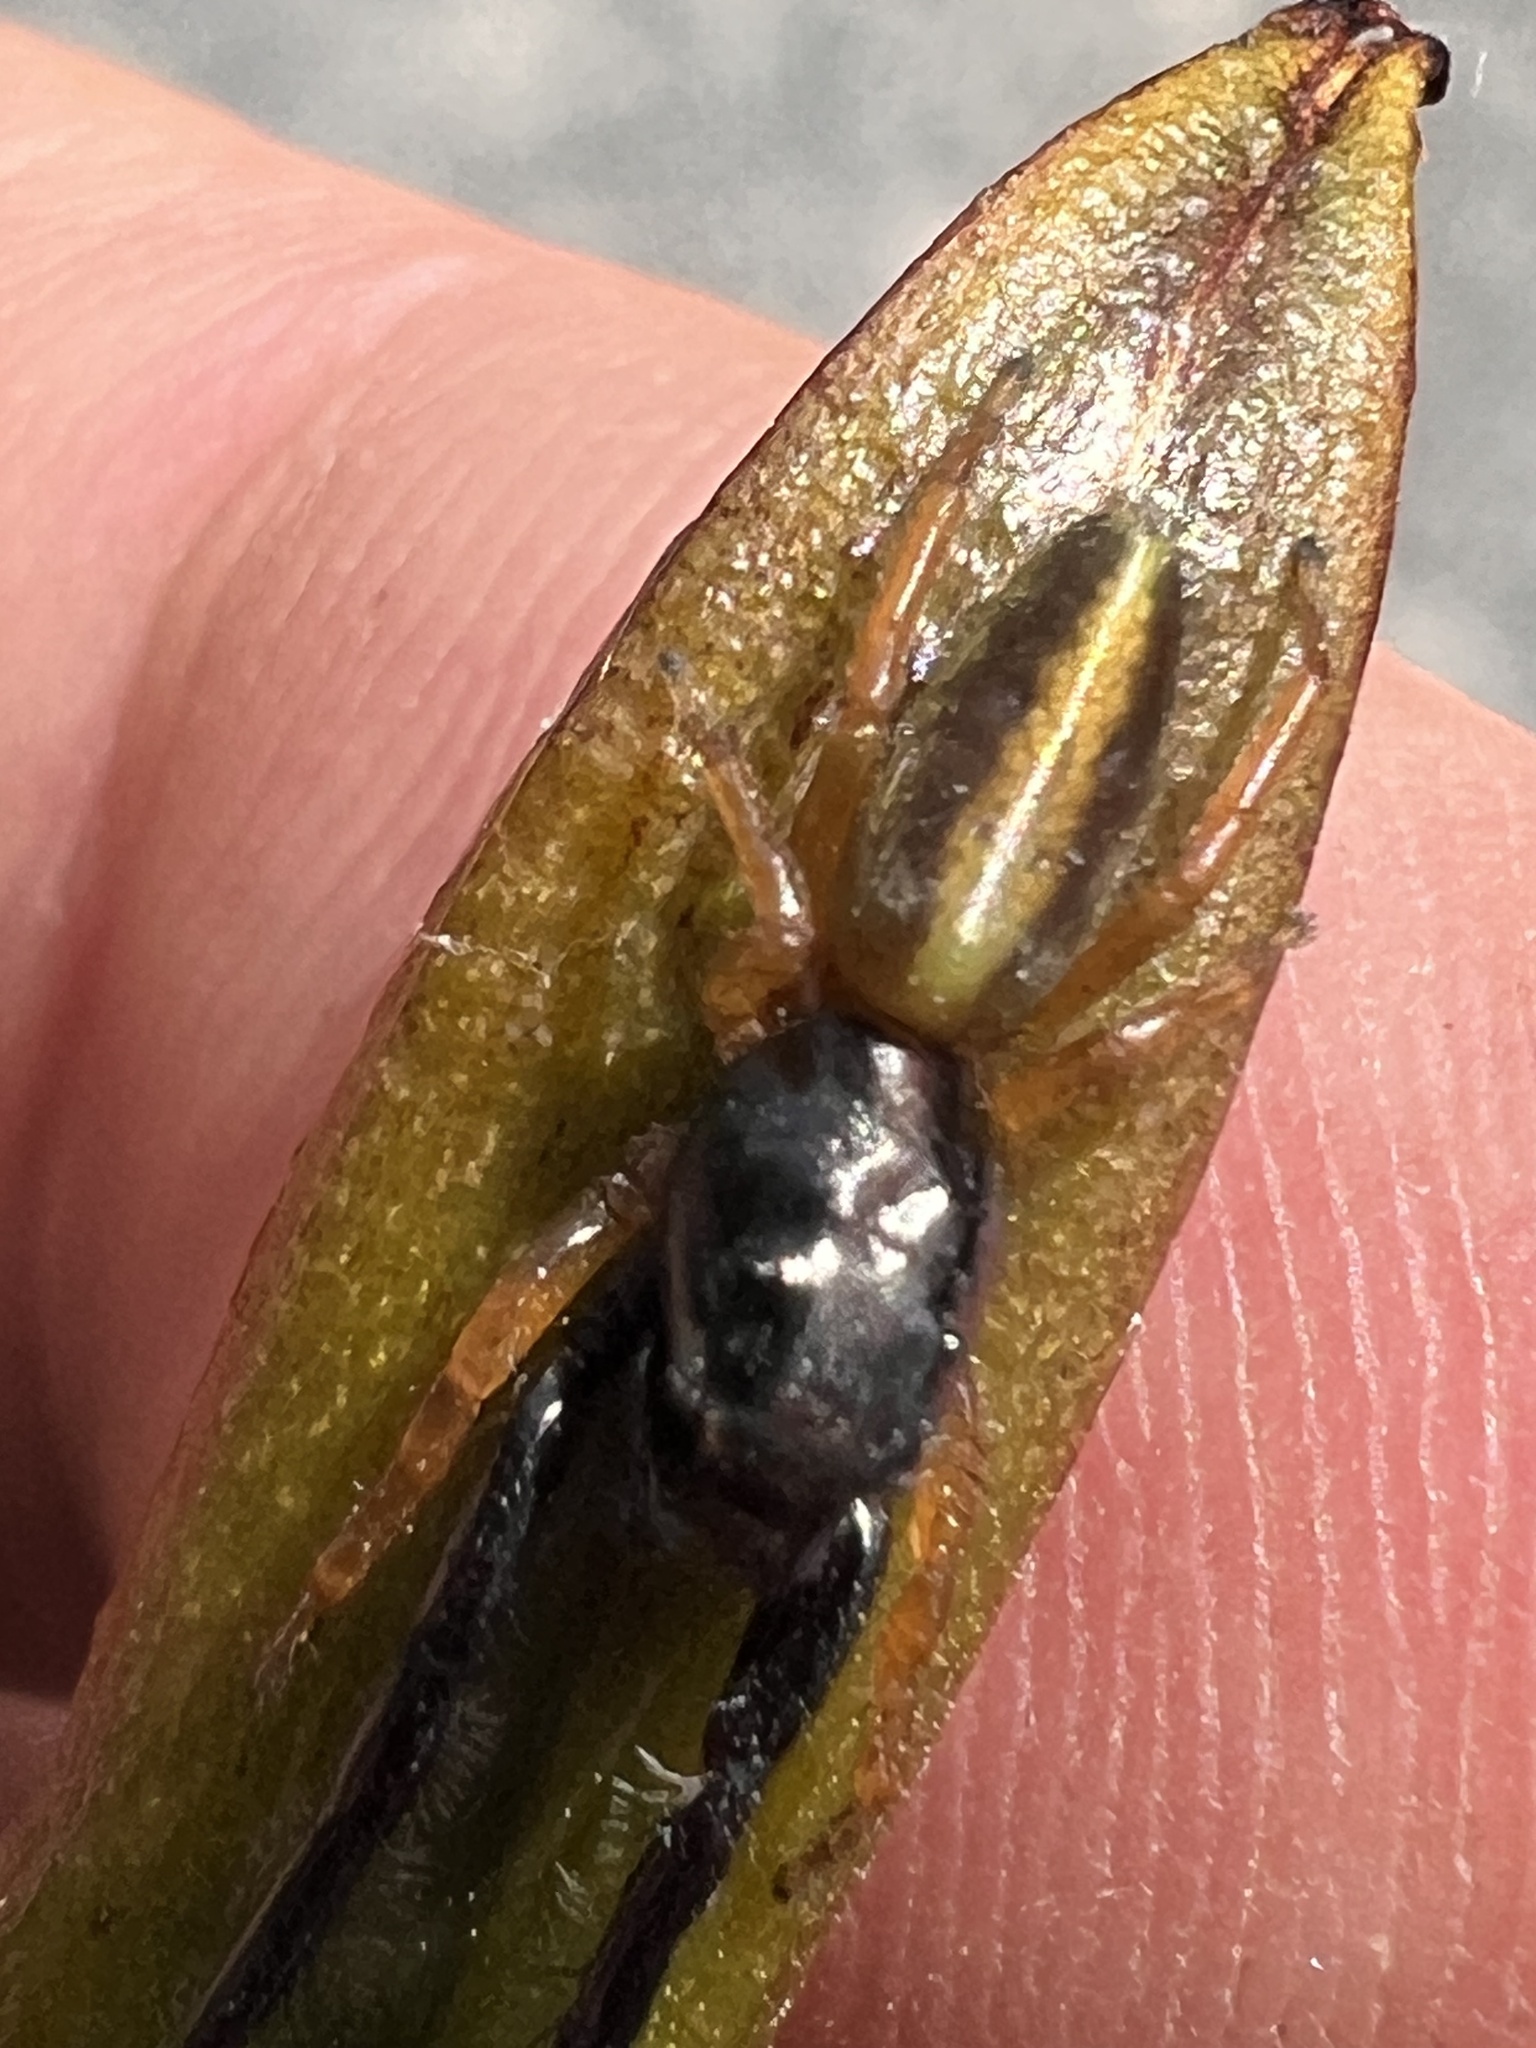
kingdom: Animalia
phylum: Arthropoda
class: Arachnida
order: Araneae
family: Salticidae
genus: Trite
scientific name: Trite planiceps
